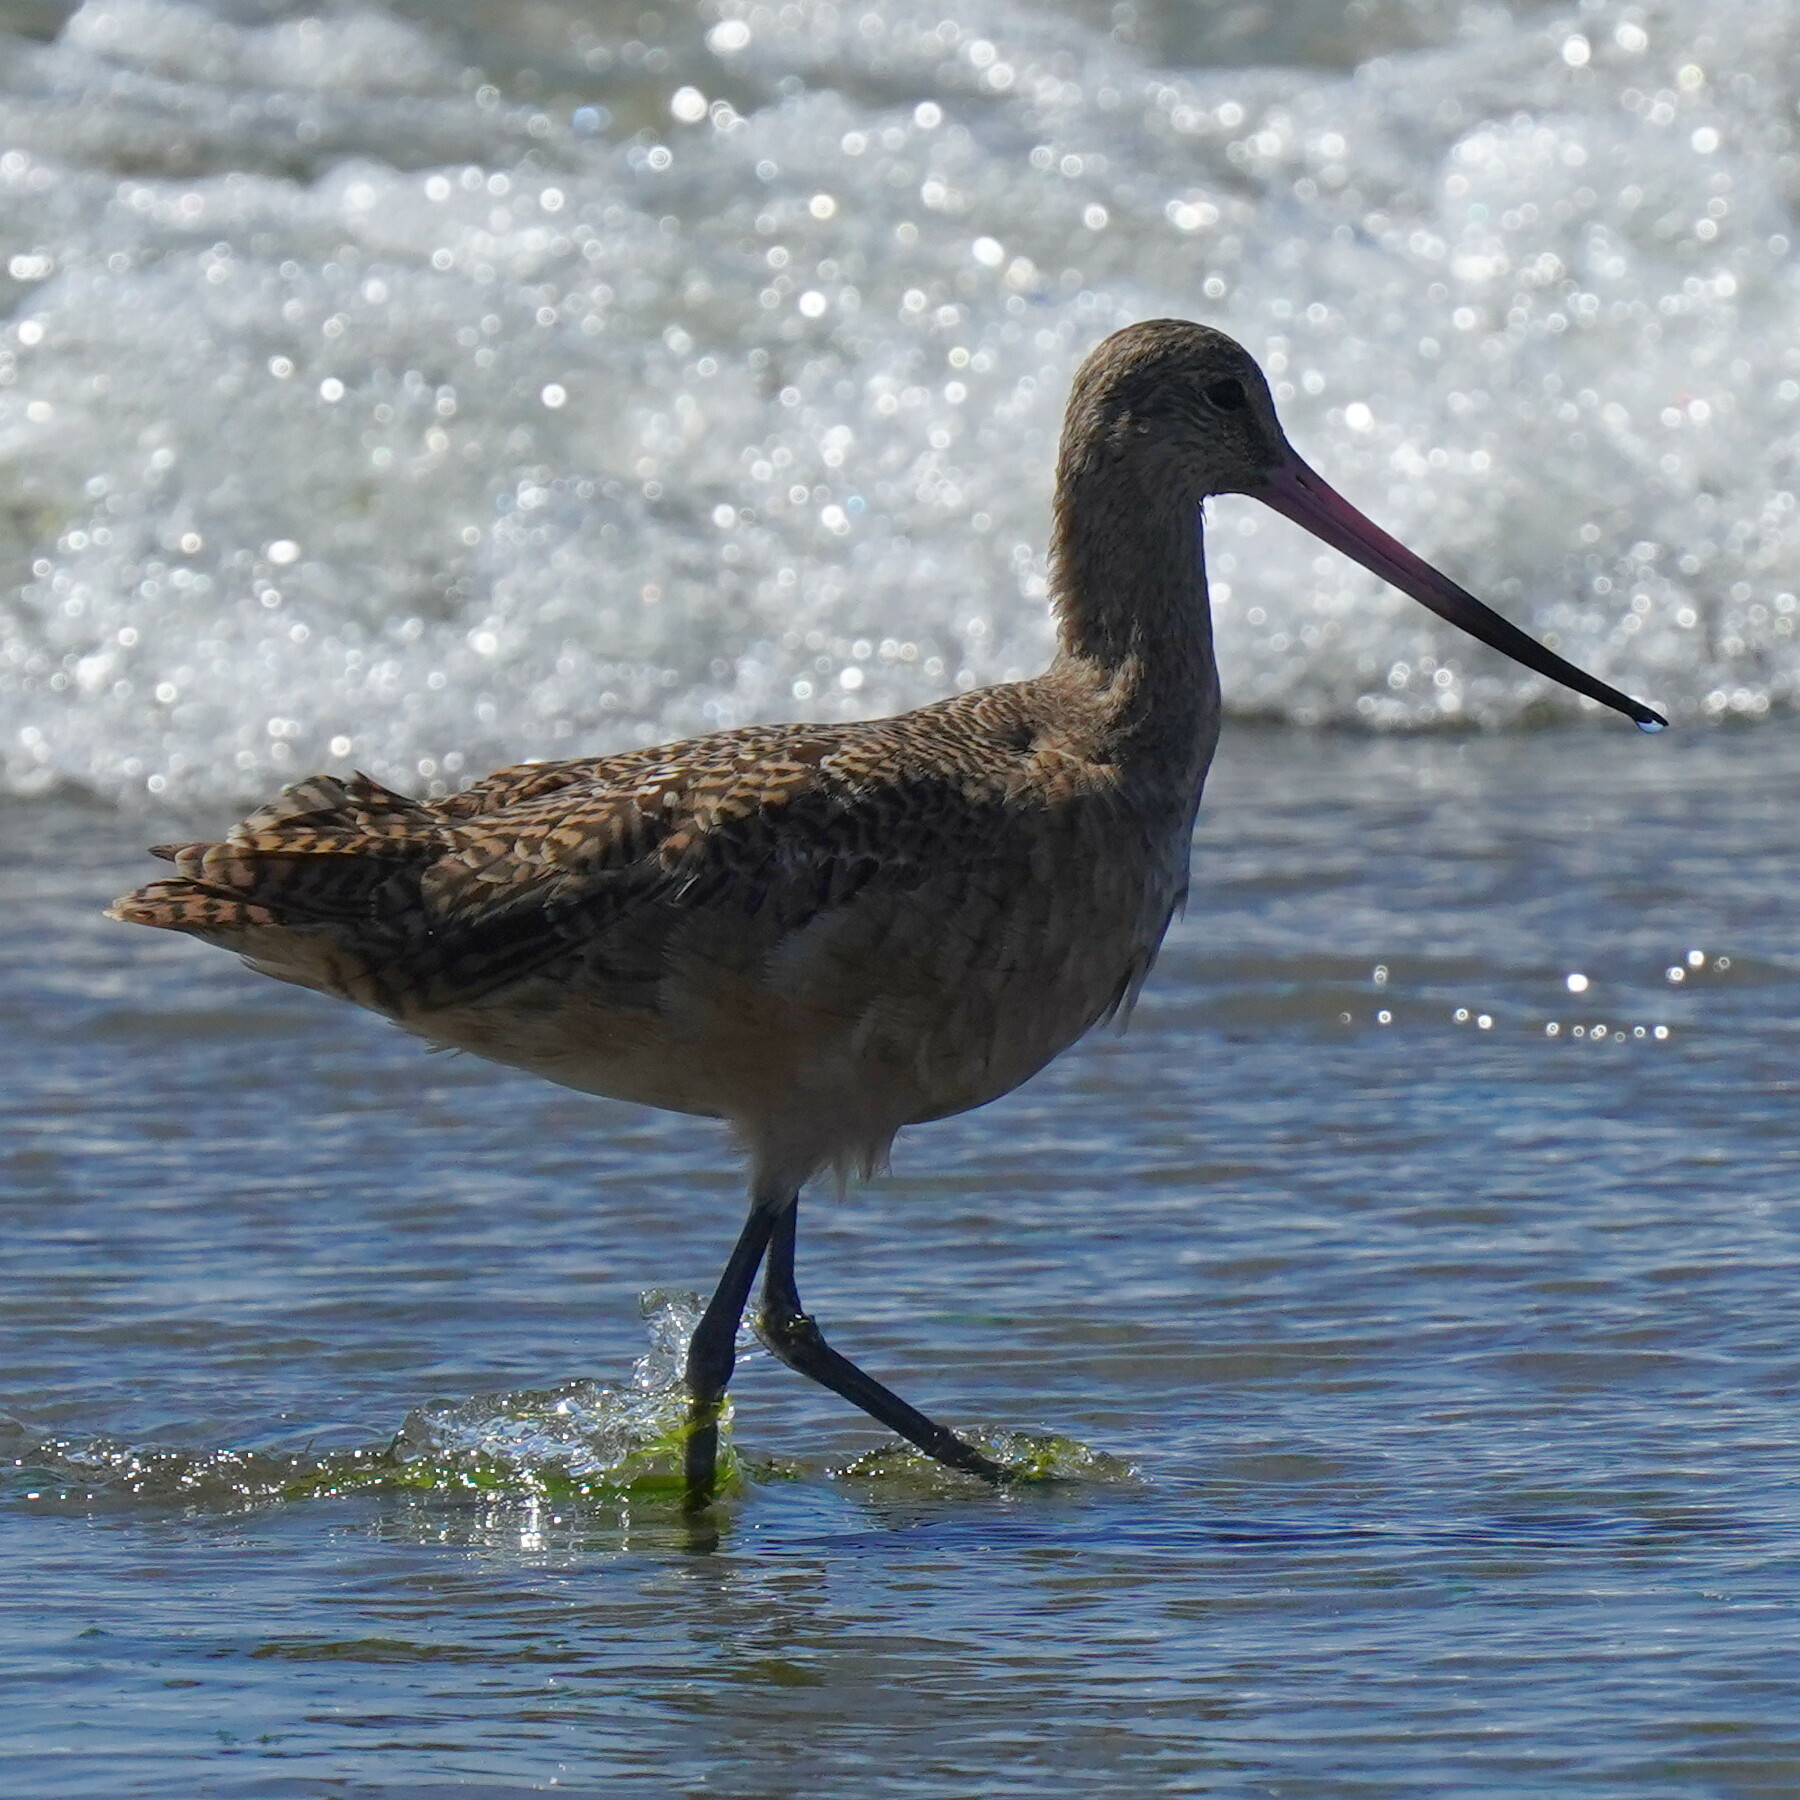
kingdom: Animalia
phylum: Chordata
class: Aves
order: Charadriiformes
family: Scolopacidae
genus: Limosa
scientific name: Limosa fedoa
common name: Marbled godwit
